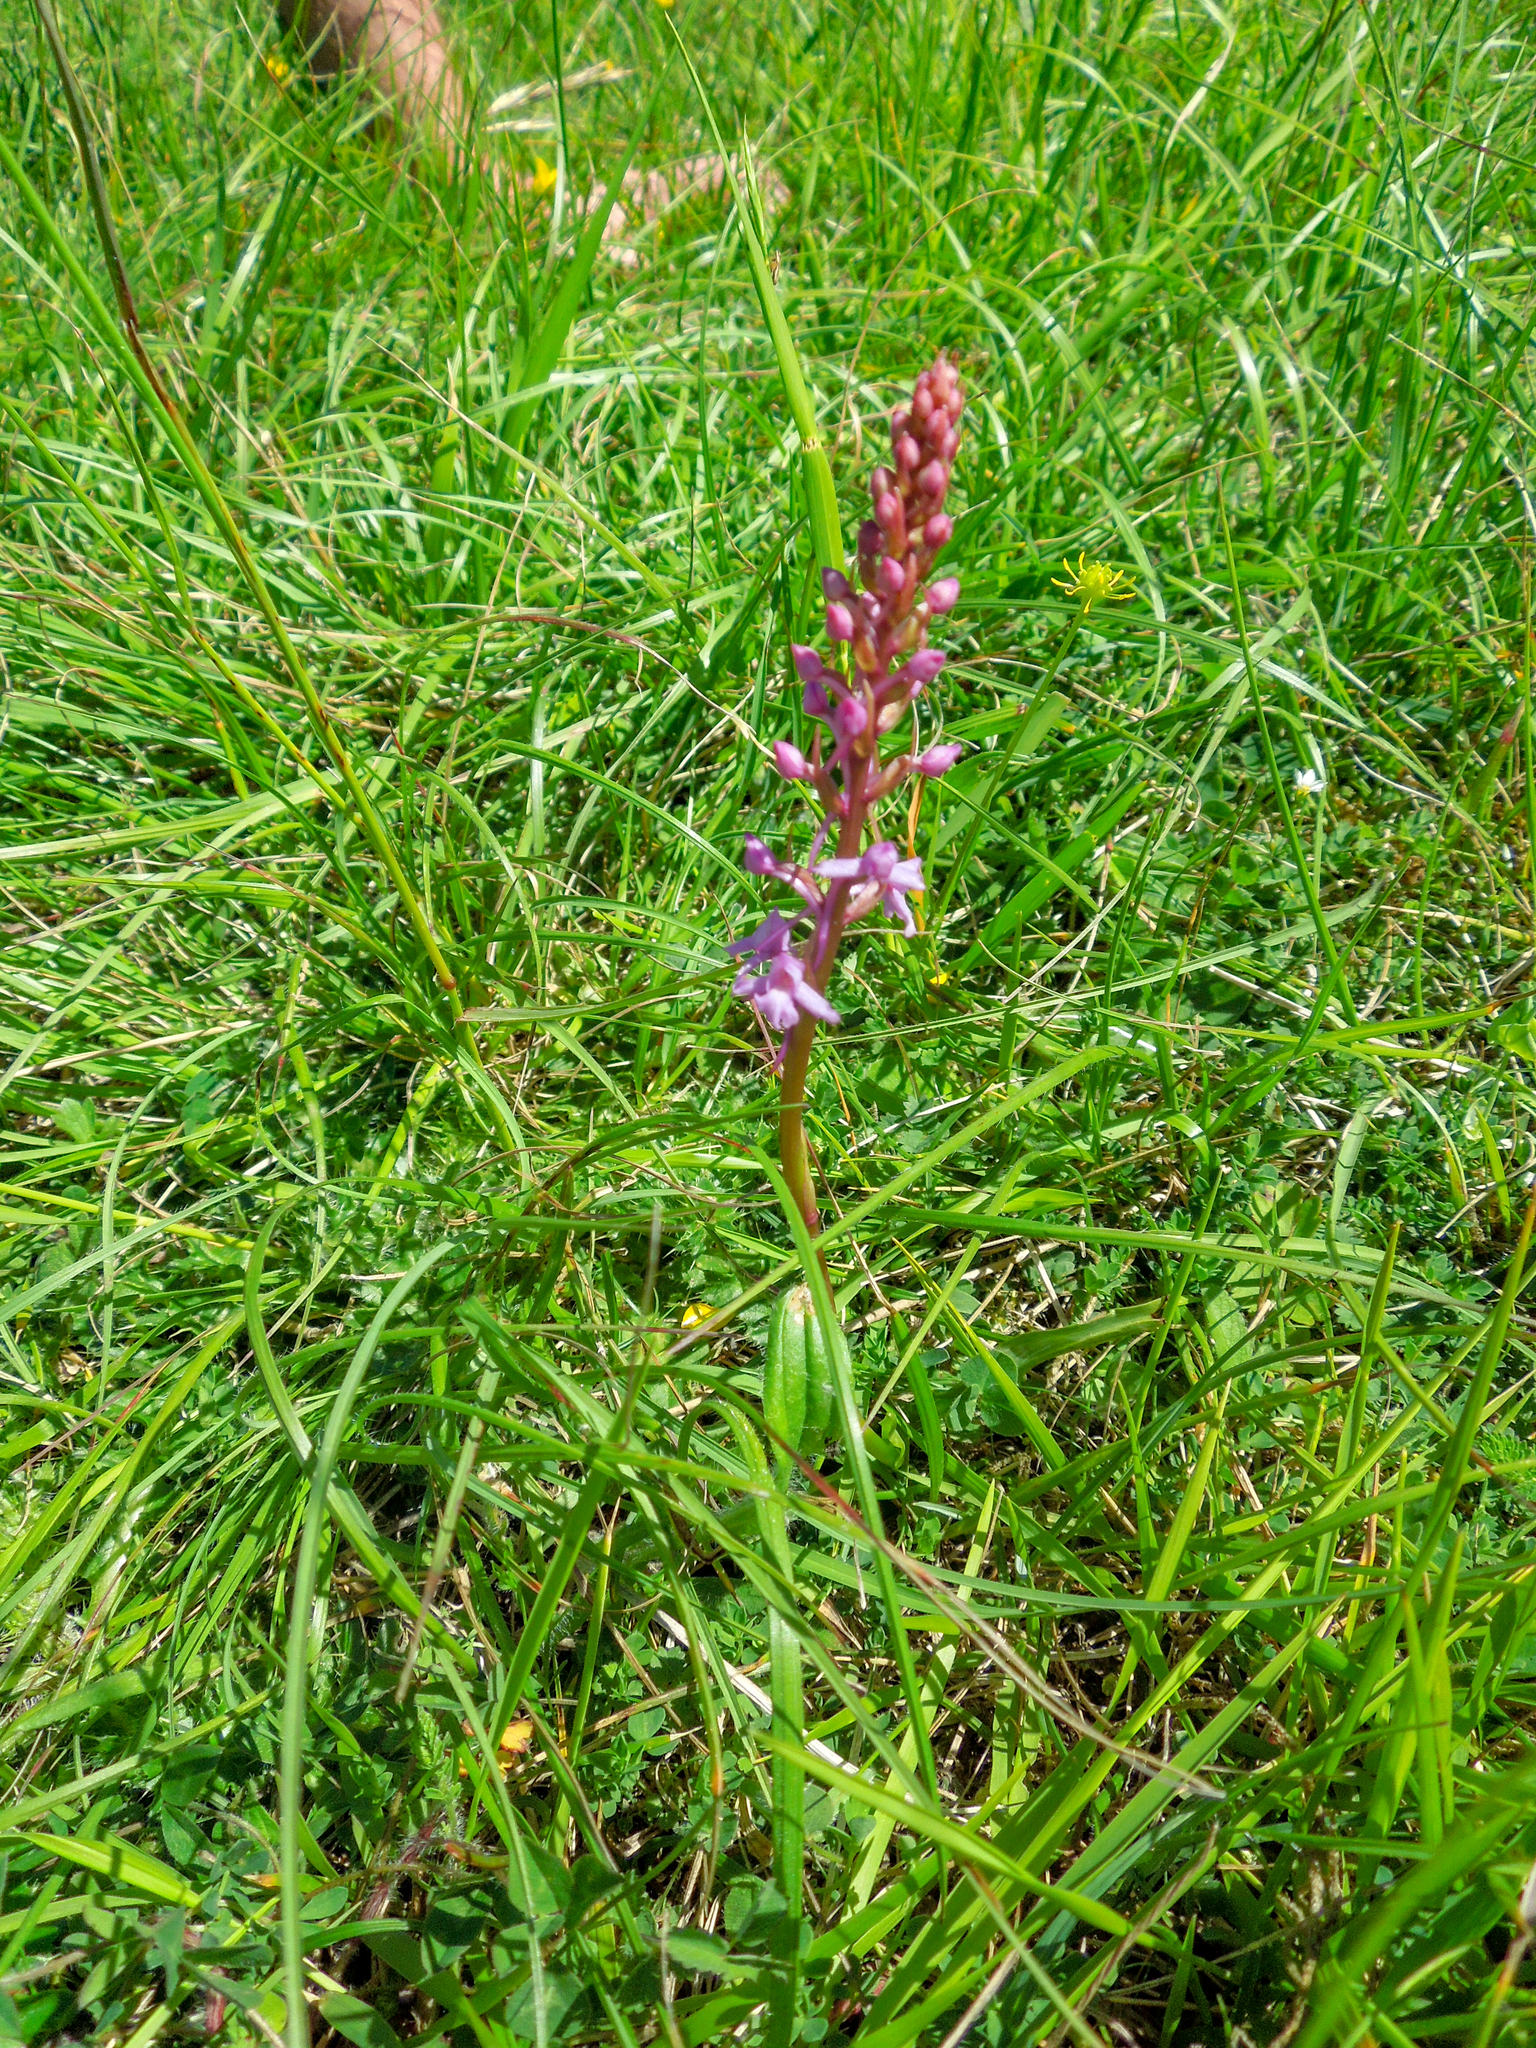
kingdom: Plantae
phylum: Tracheophyta
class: Liliopsida
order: Asparagales
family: Orchidaceae
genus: Gymnadenia
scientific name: Gymnadenia conopsea
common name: Fragrant orchid
